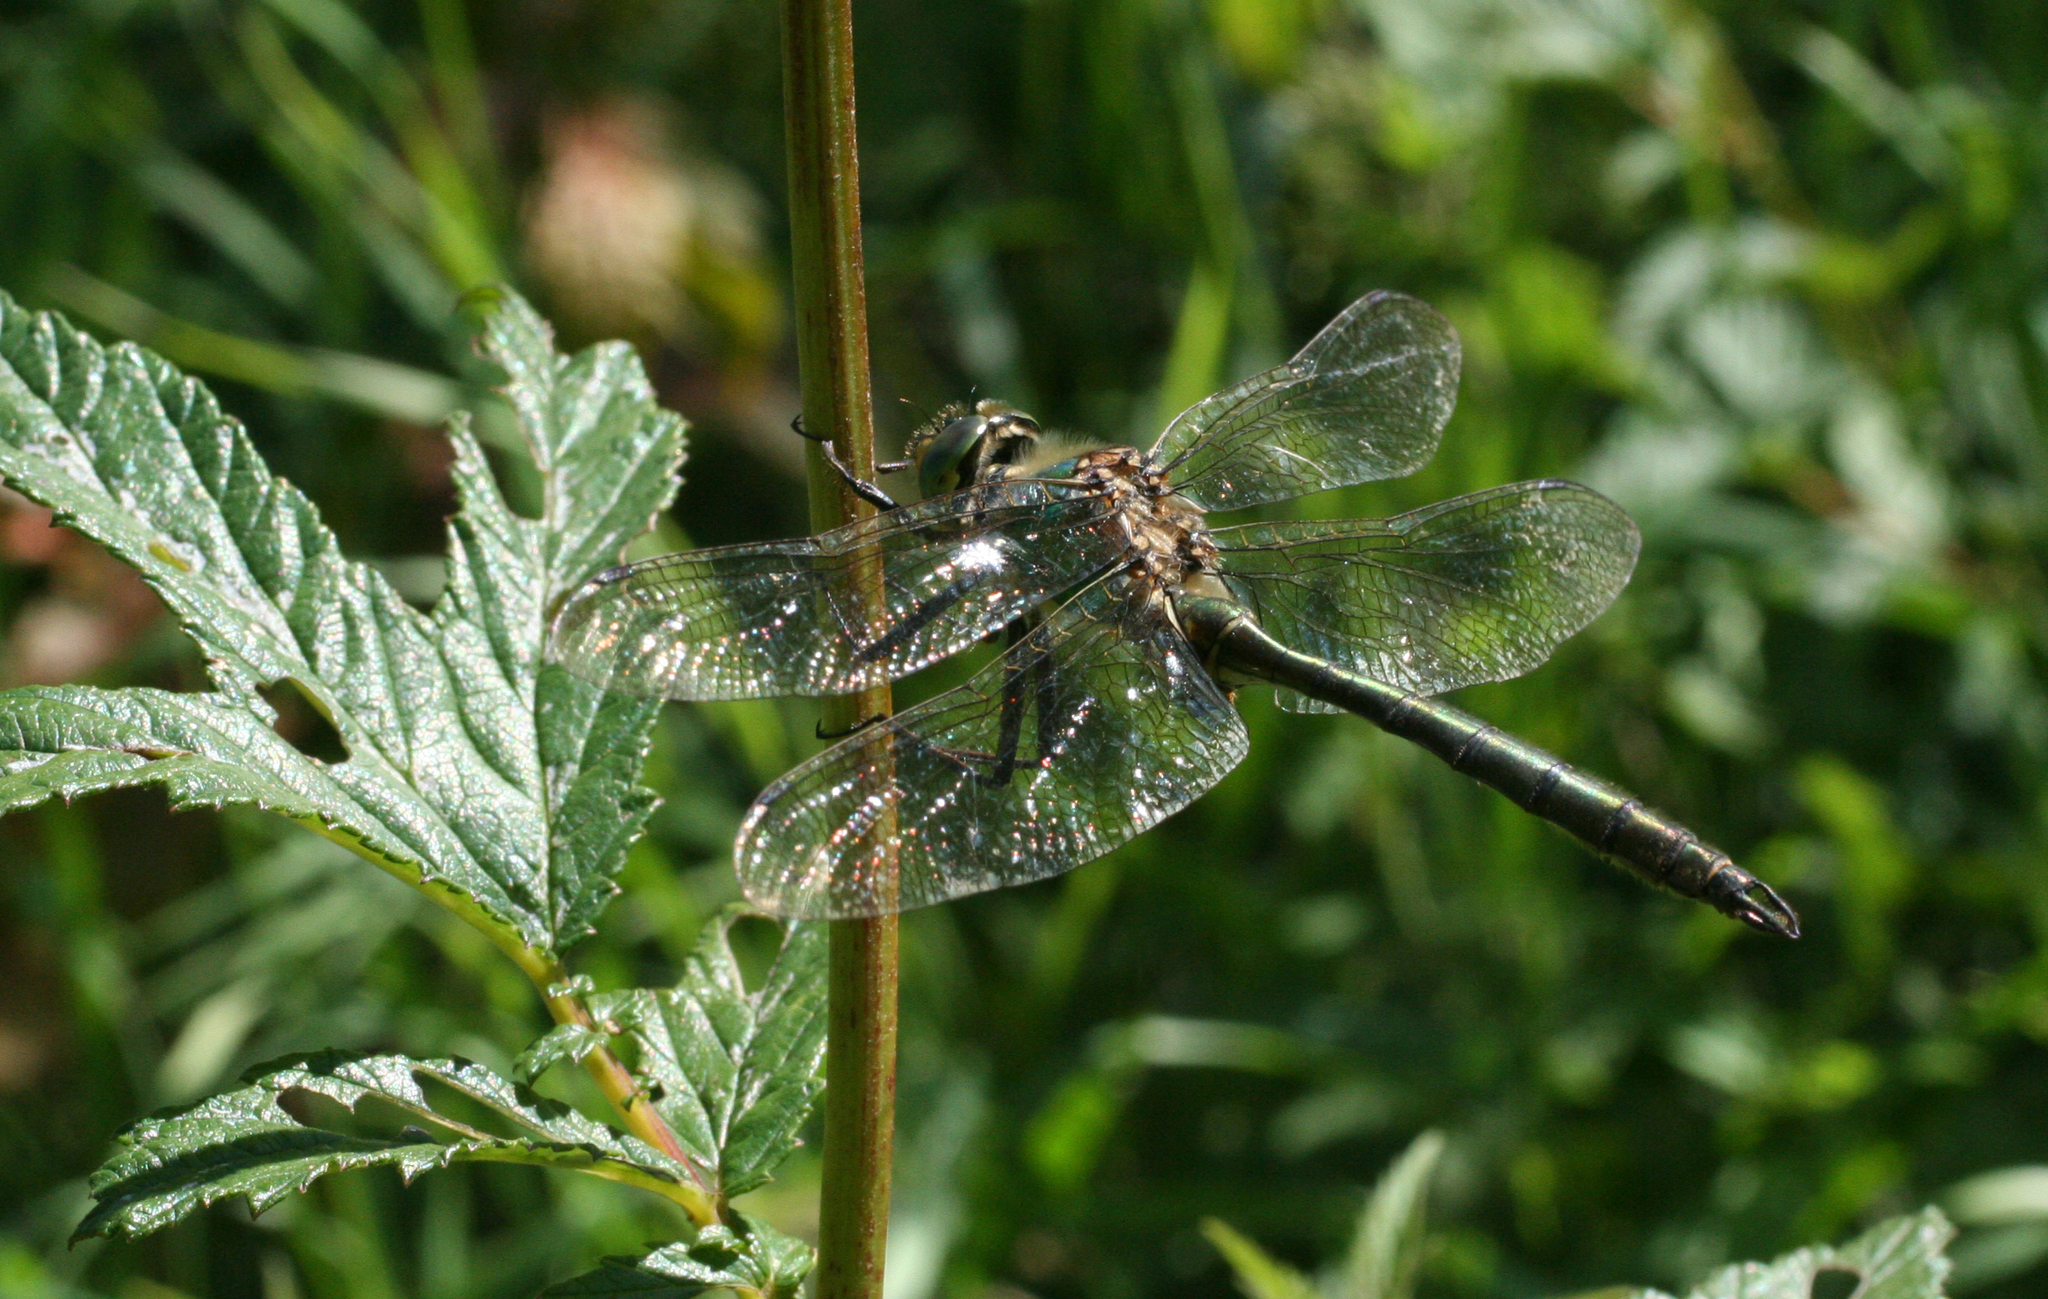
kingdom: Animalia
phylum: Arthropoda
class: Insecta
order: Odonata
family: Corduliidae
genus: Somatochlora
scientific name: Somatochlora metallica
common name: Brilliant emerald
